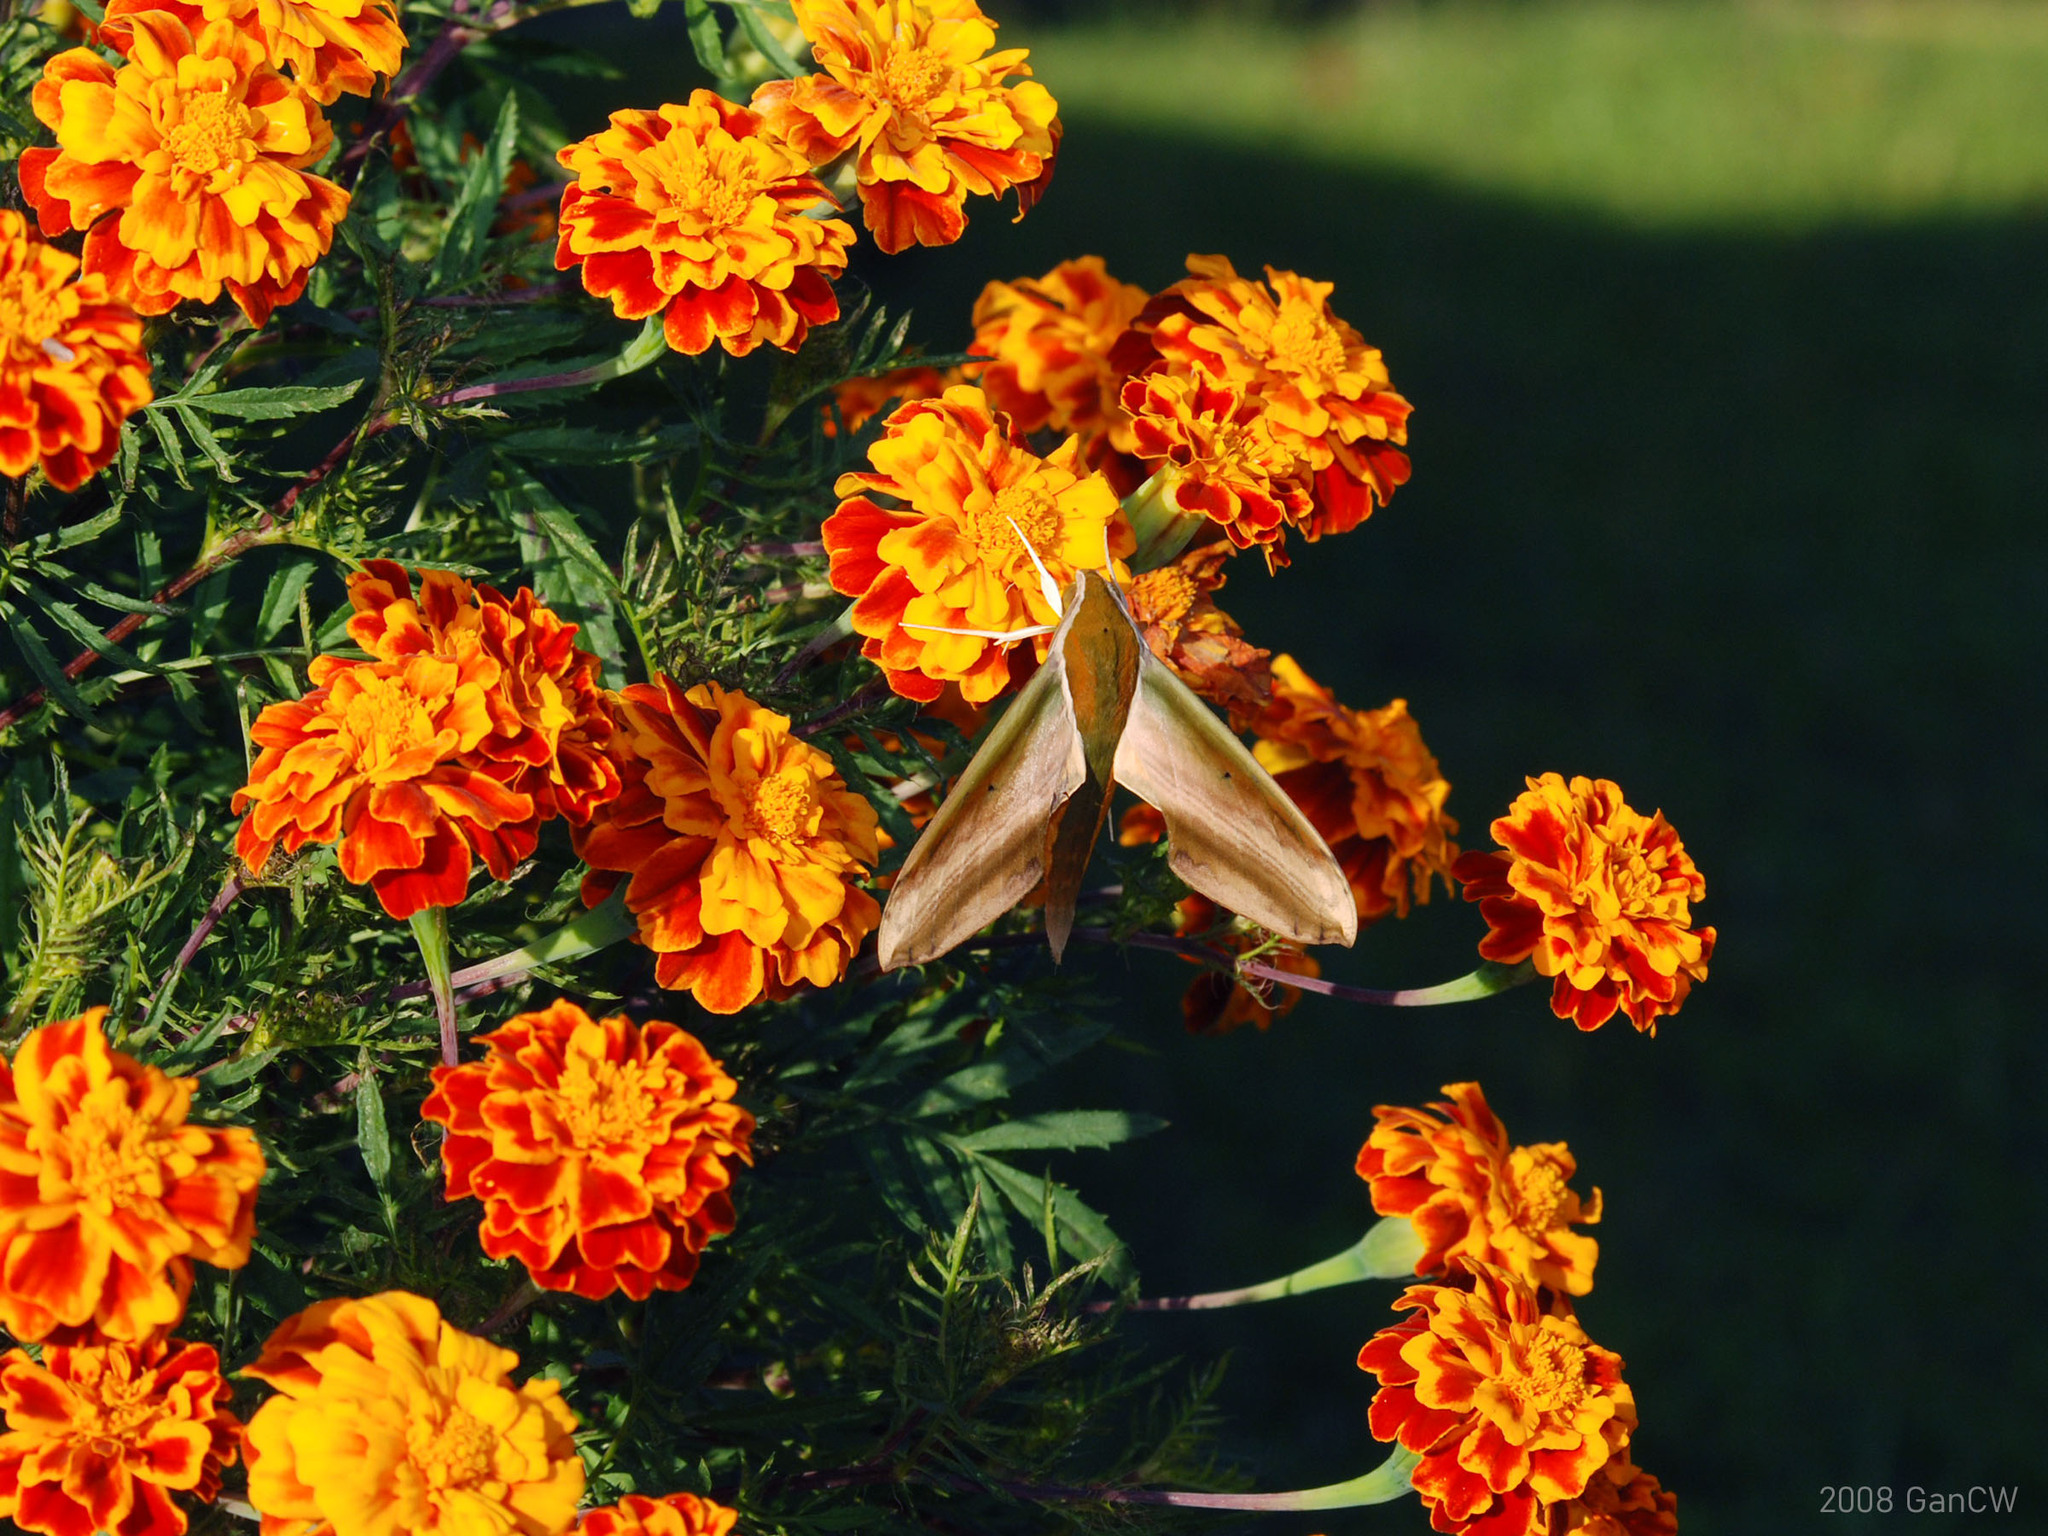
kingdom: Animalia
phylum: Arthropoda
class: Insecta
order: Lepidoptera
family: Sphingidae
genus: Theretra
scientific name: Theretra nessus
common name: Yam hawk moth
